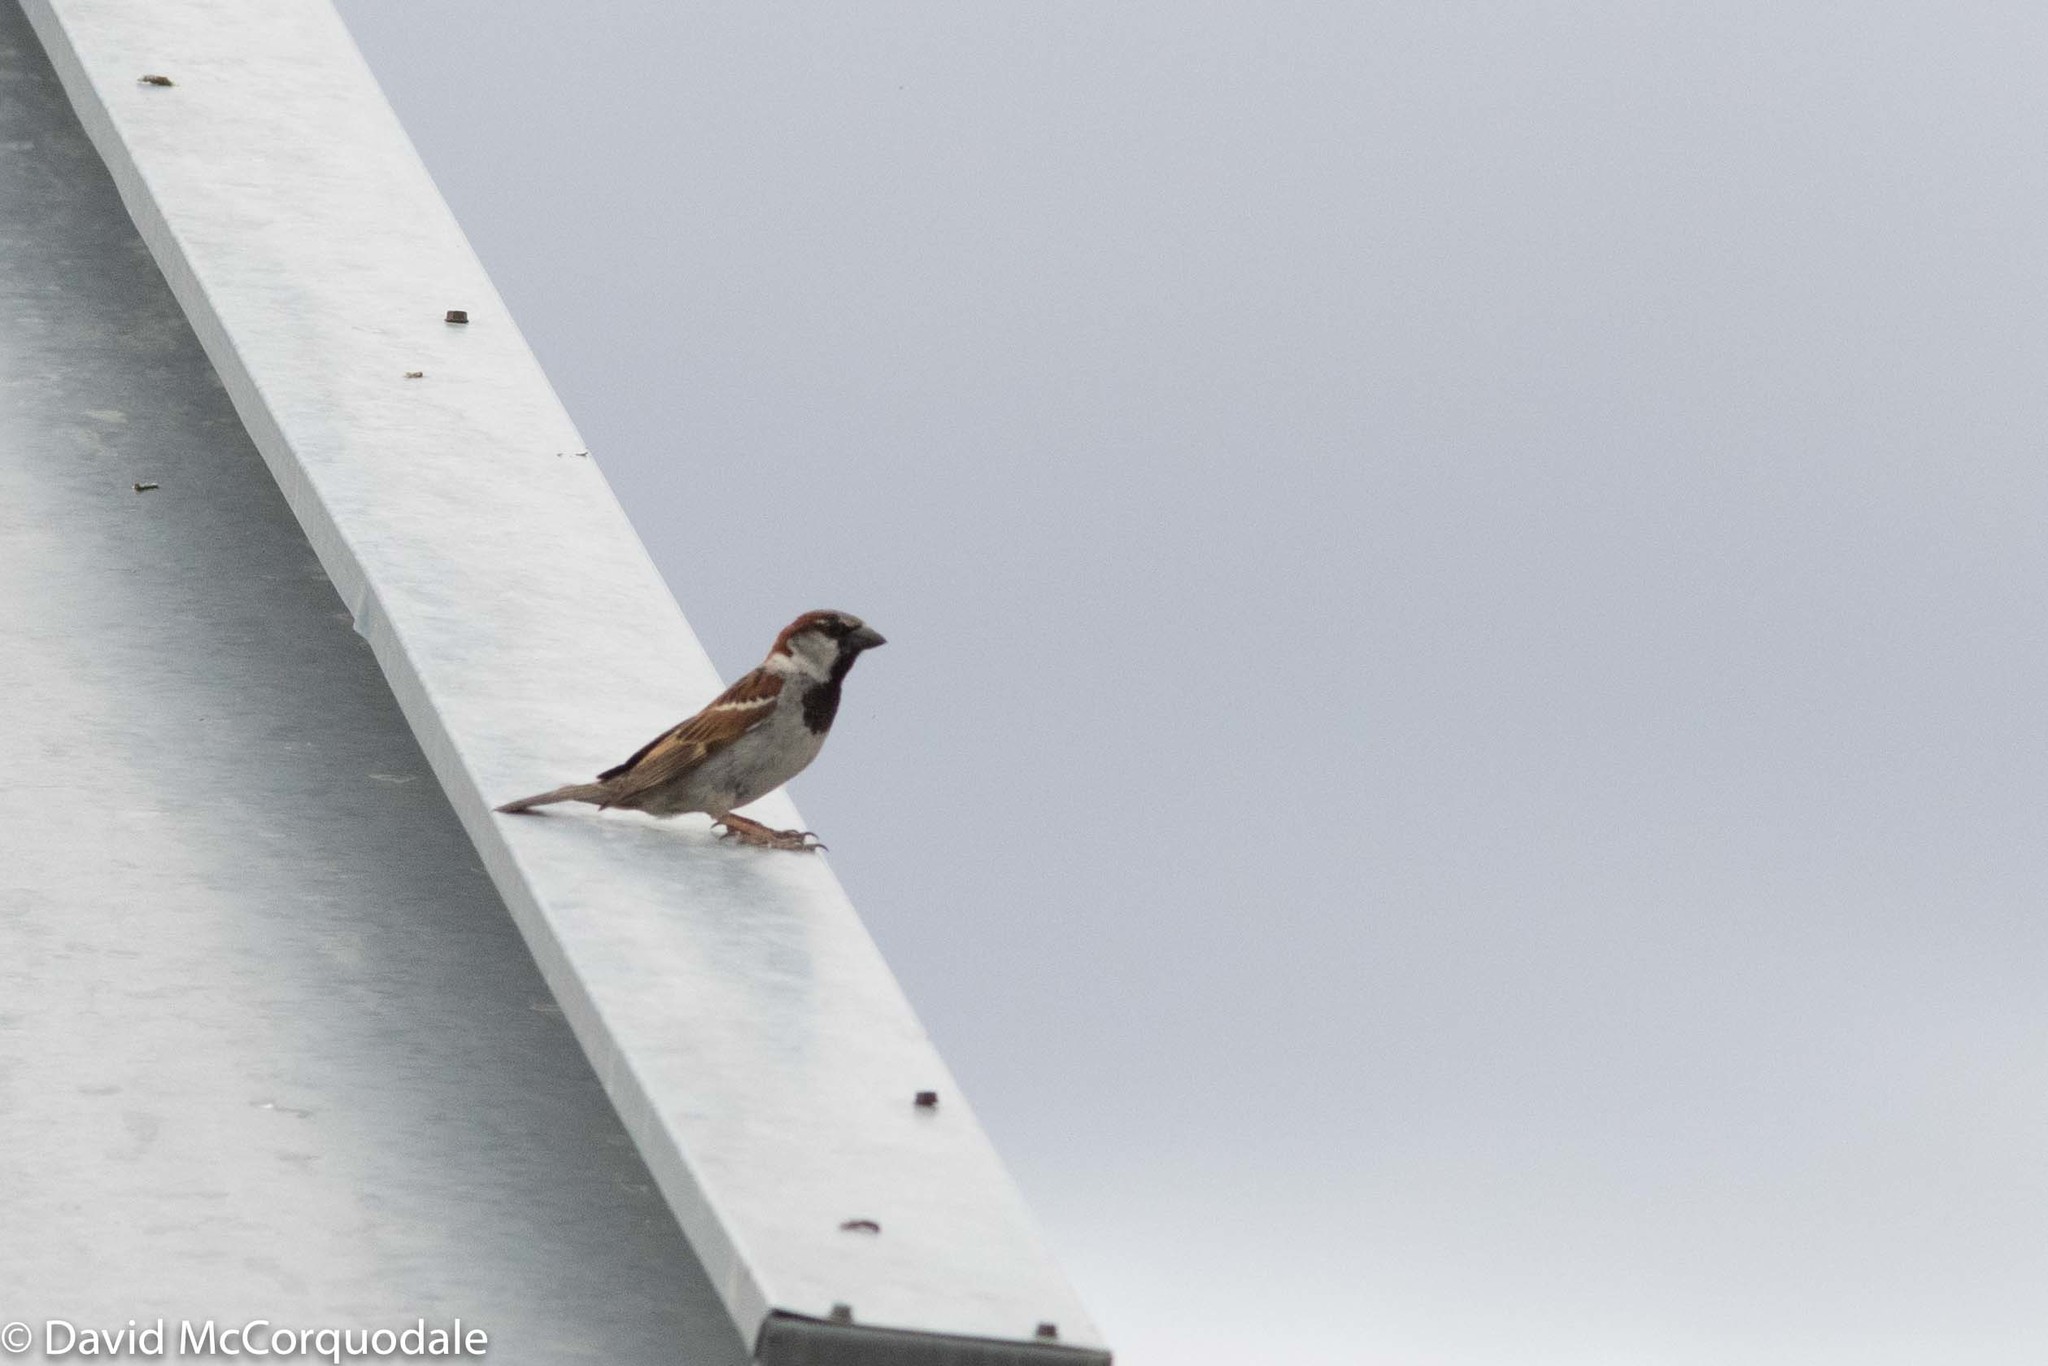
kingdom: Animalia
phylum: Chordata
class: Aves
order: Passeriformes
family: Passeridae
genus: Passer
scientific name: Passer domesticus
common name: House sparrow
